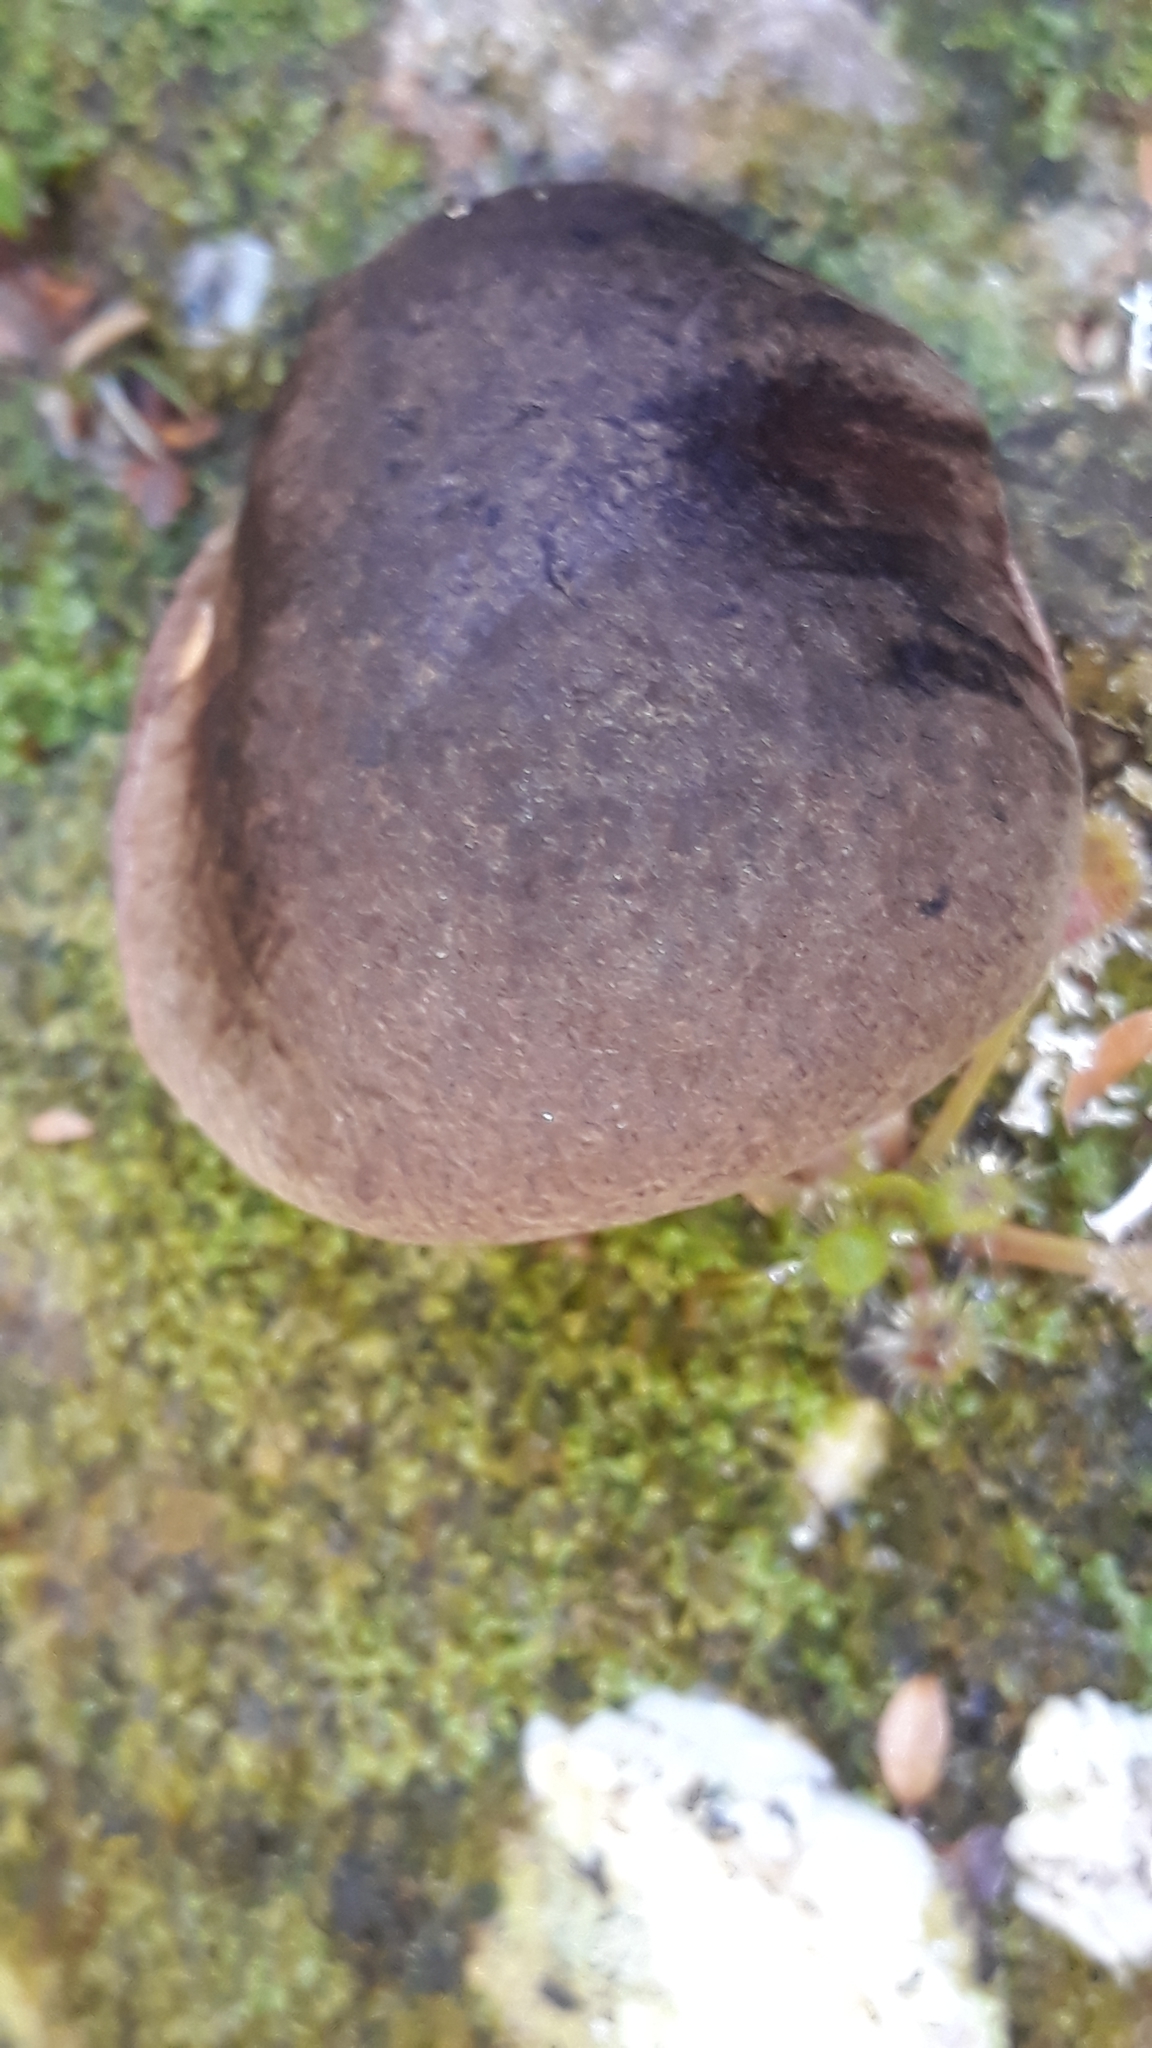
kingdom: Fungi
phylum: Basidiomycota
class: Agaricomycetes
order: Boletales
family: Boletaceae
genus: Porphyrellus
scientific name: Porphyrellus formosus
